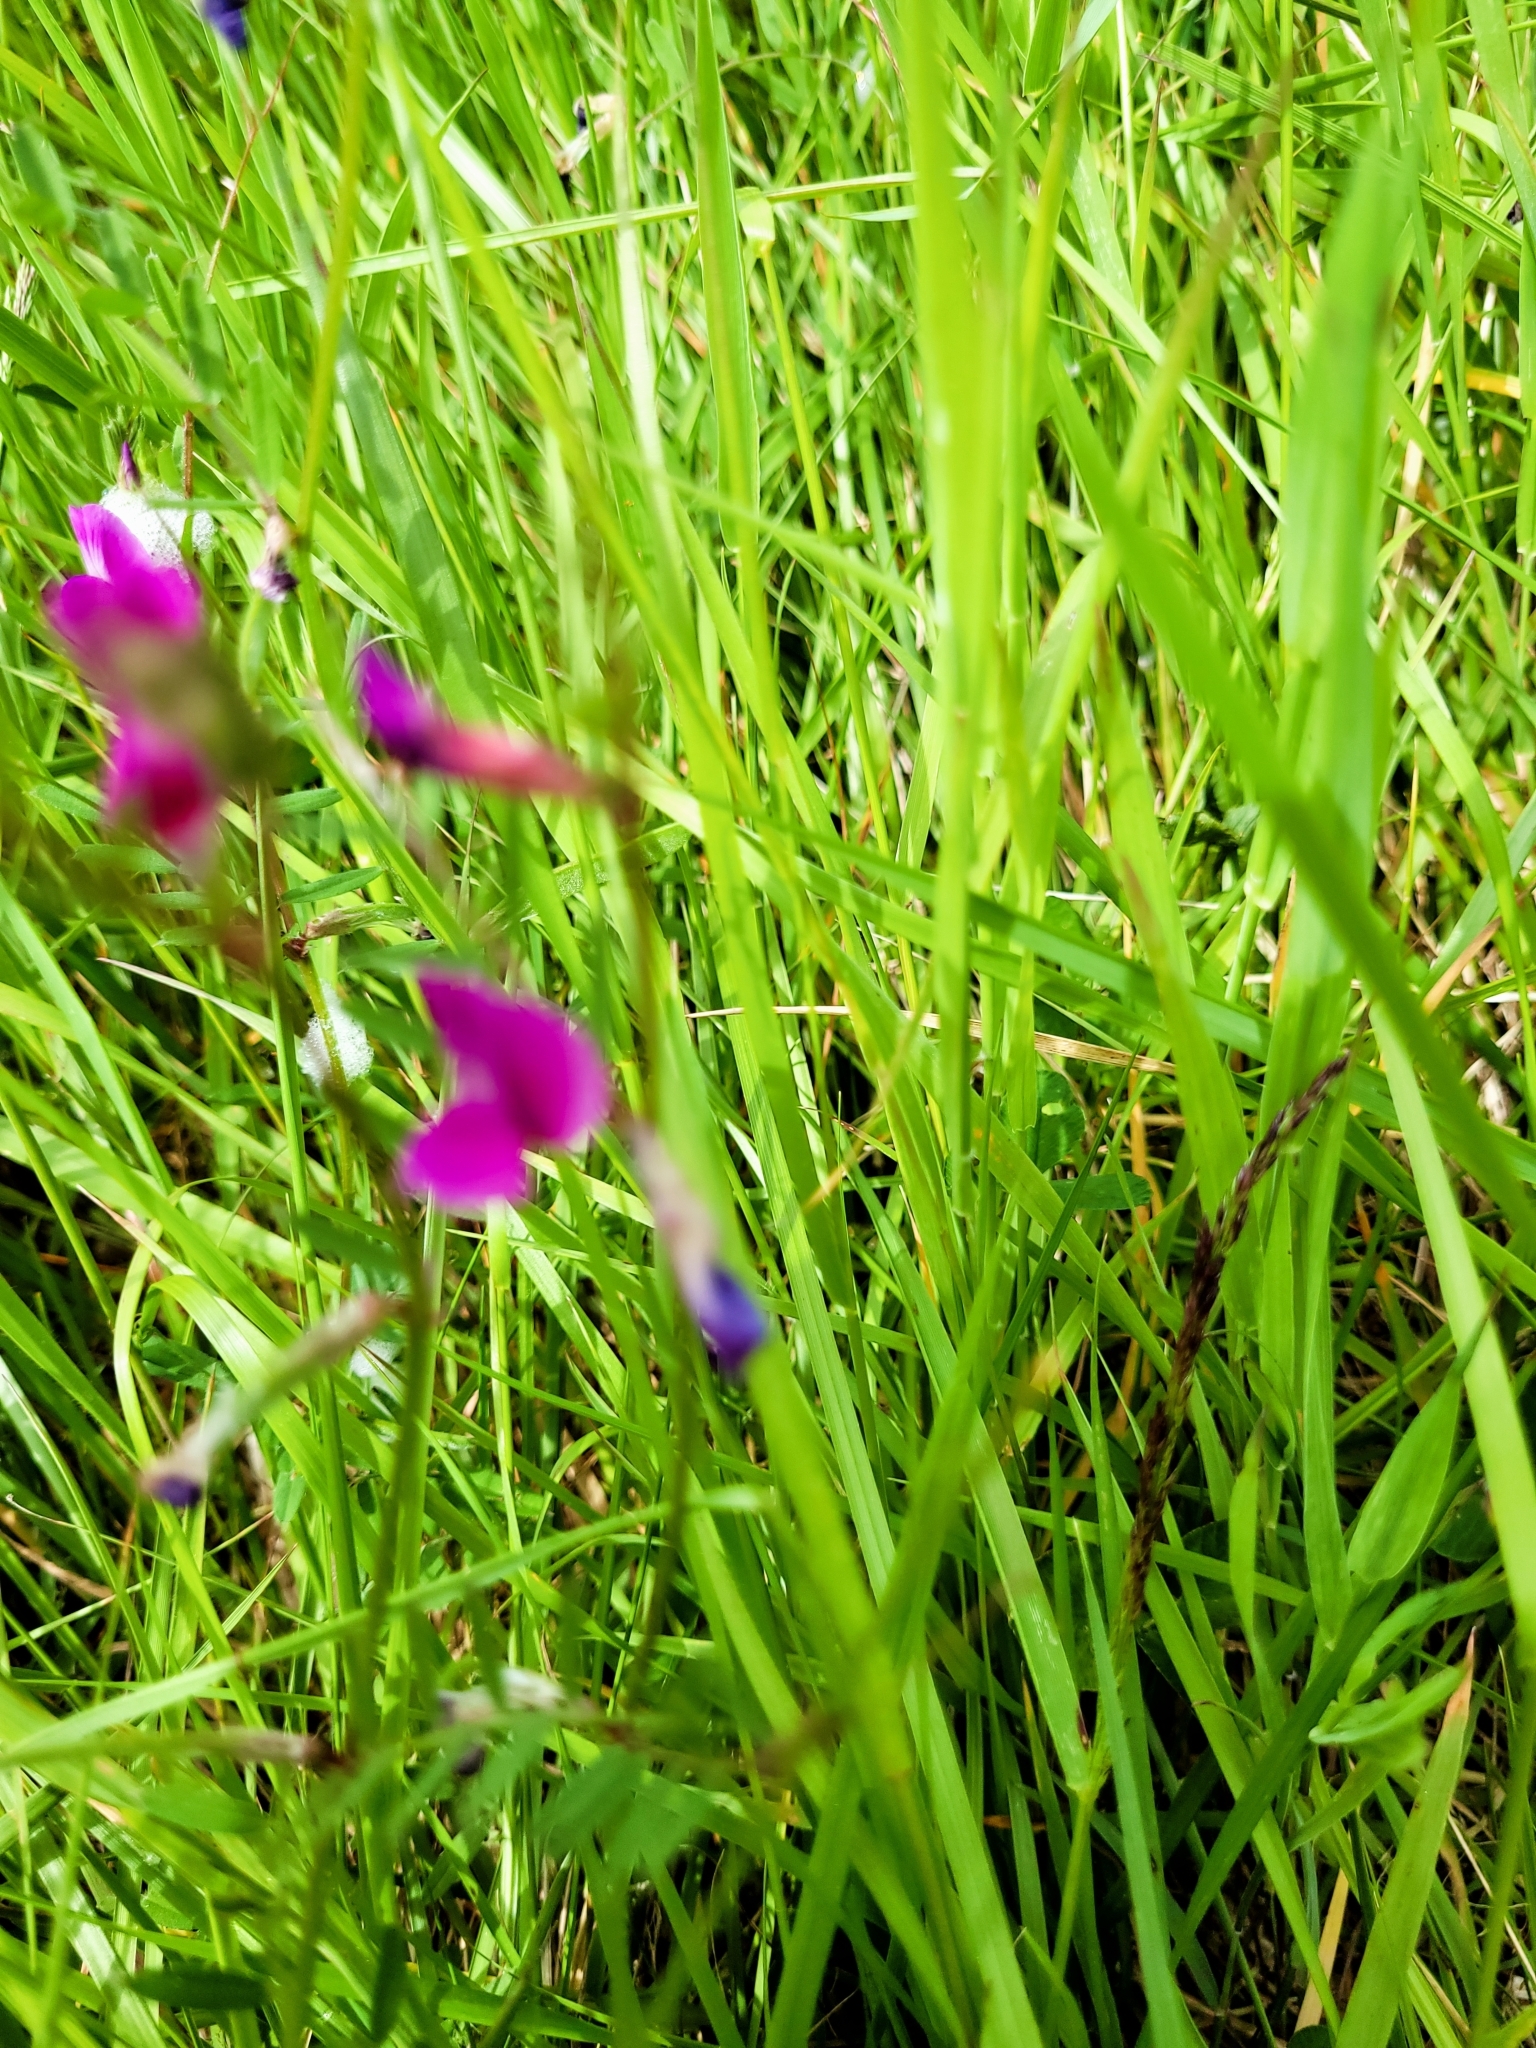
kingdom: Plantae
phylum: Tracheophyta
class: Magnoliopsida
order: Fabales
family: Fabaceae
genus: Vicia
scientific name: Vicia sativa
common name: Garden vetch
